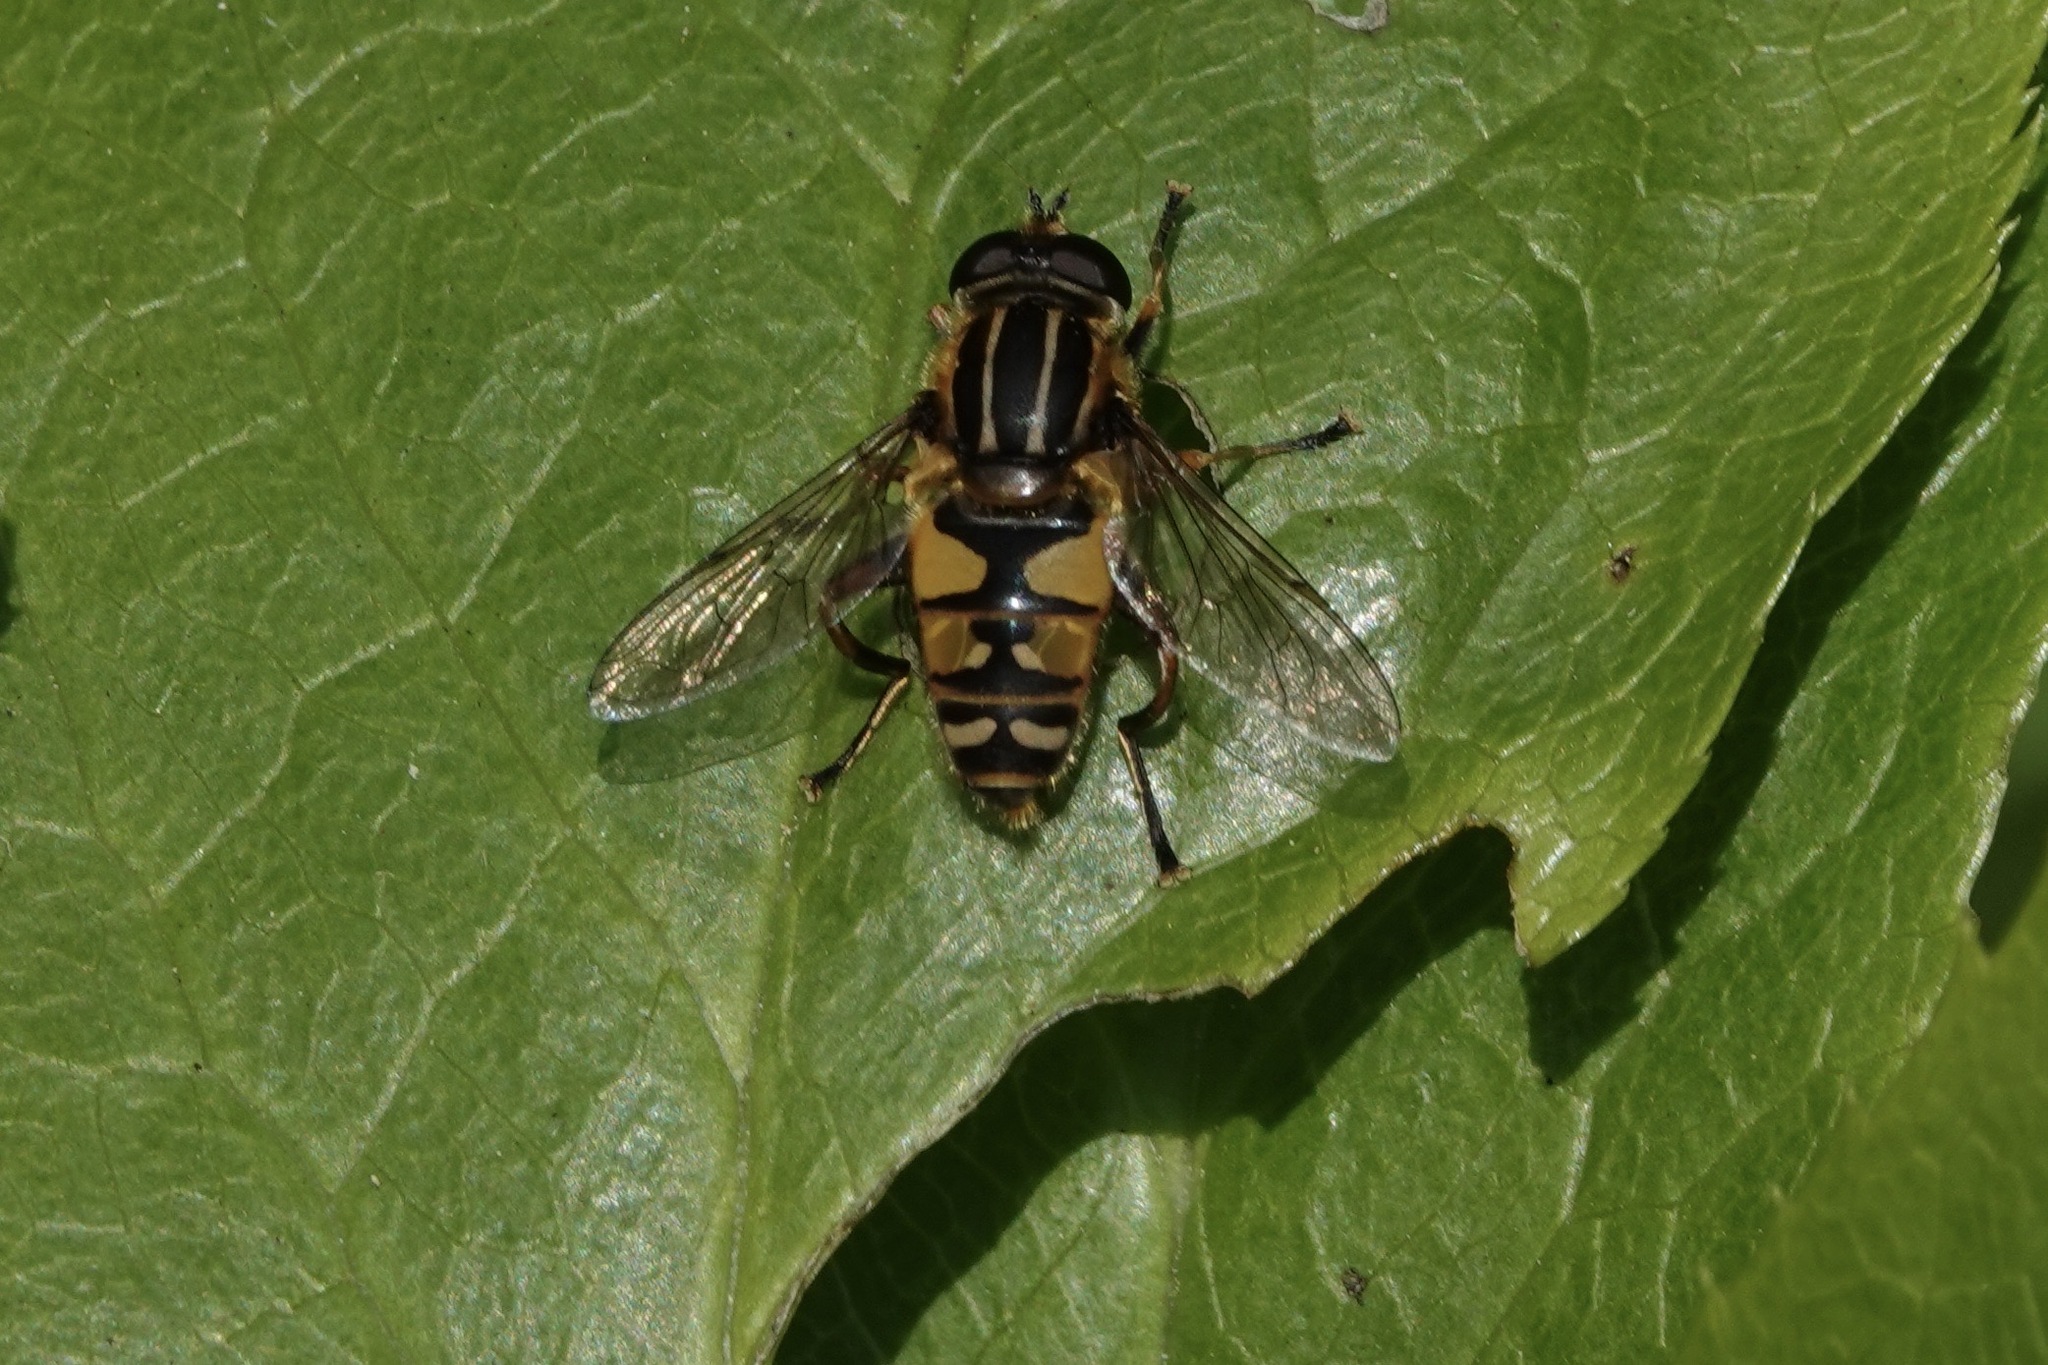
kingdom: Animalia
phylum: Arthropoda
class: Insecta
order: Diptera
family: Syrphidae
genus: Helophilus
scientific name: Helophilus pendulus
